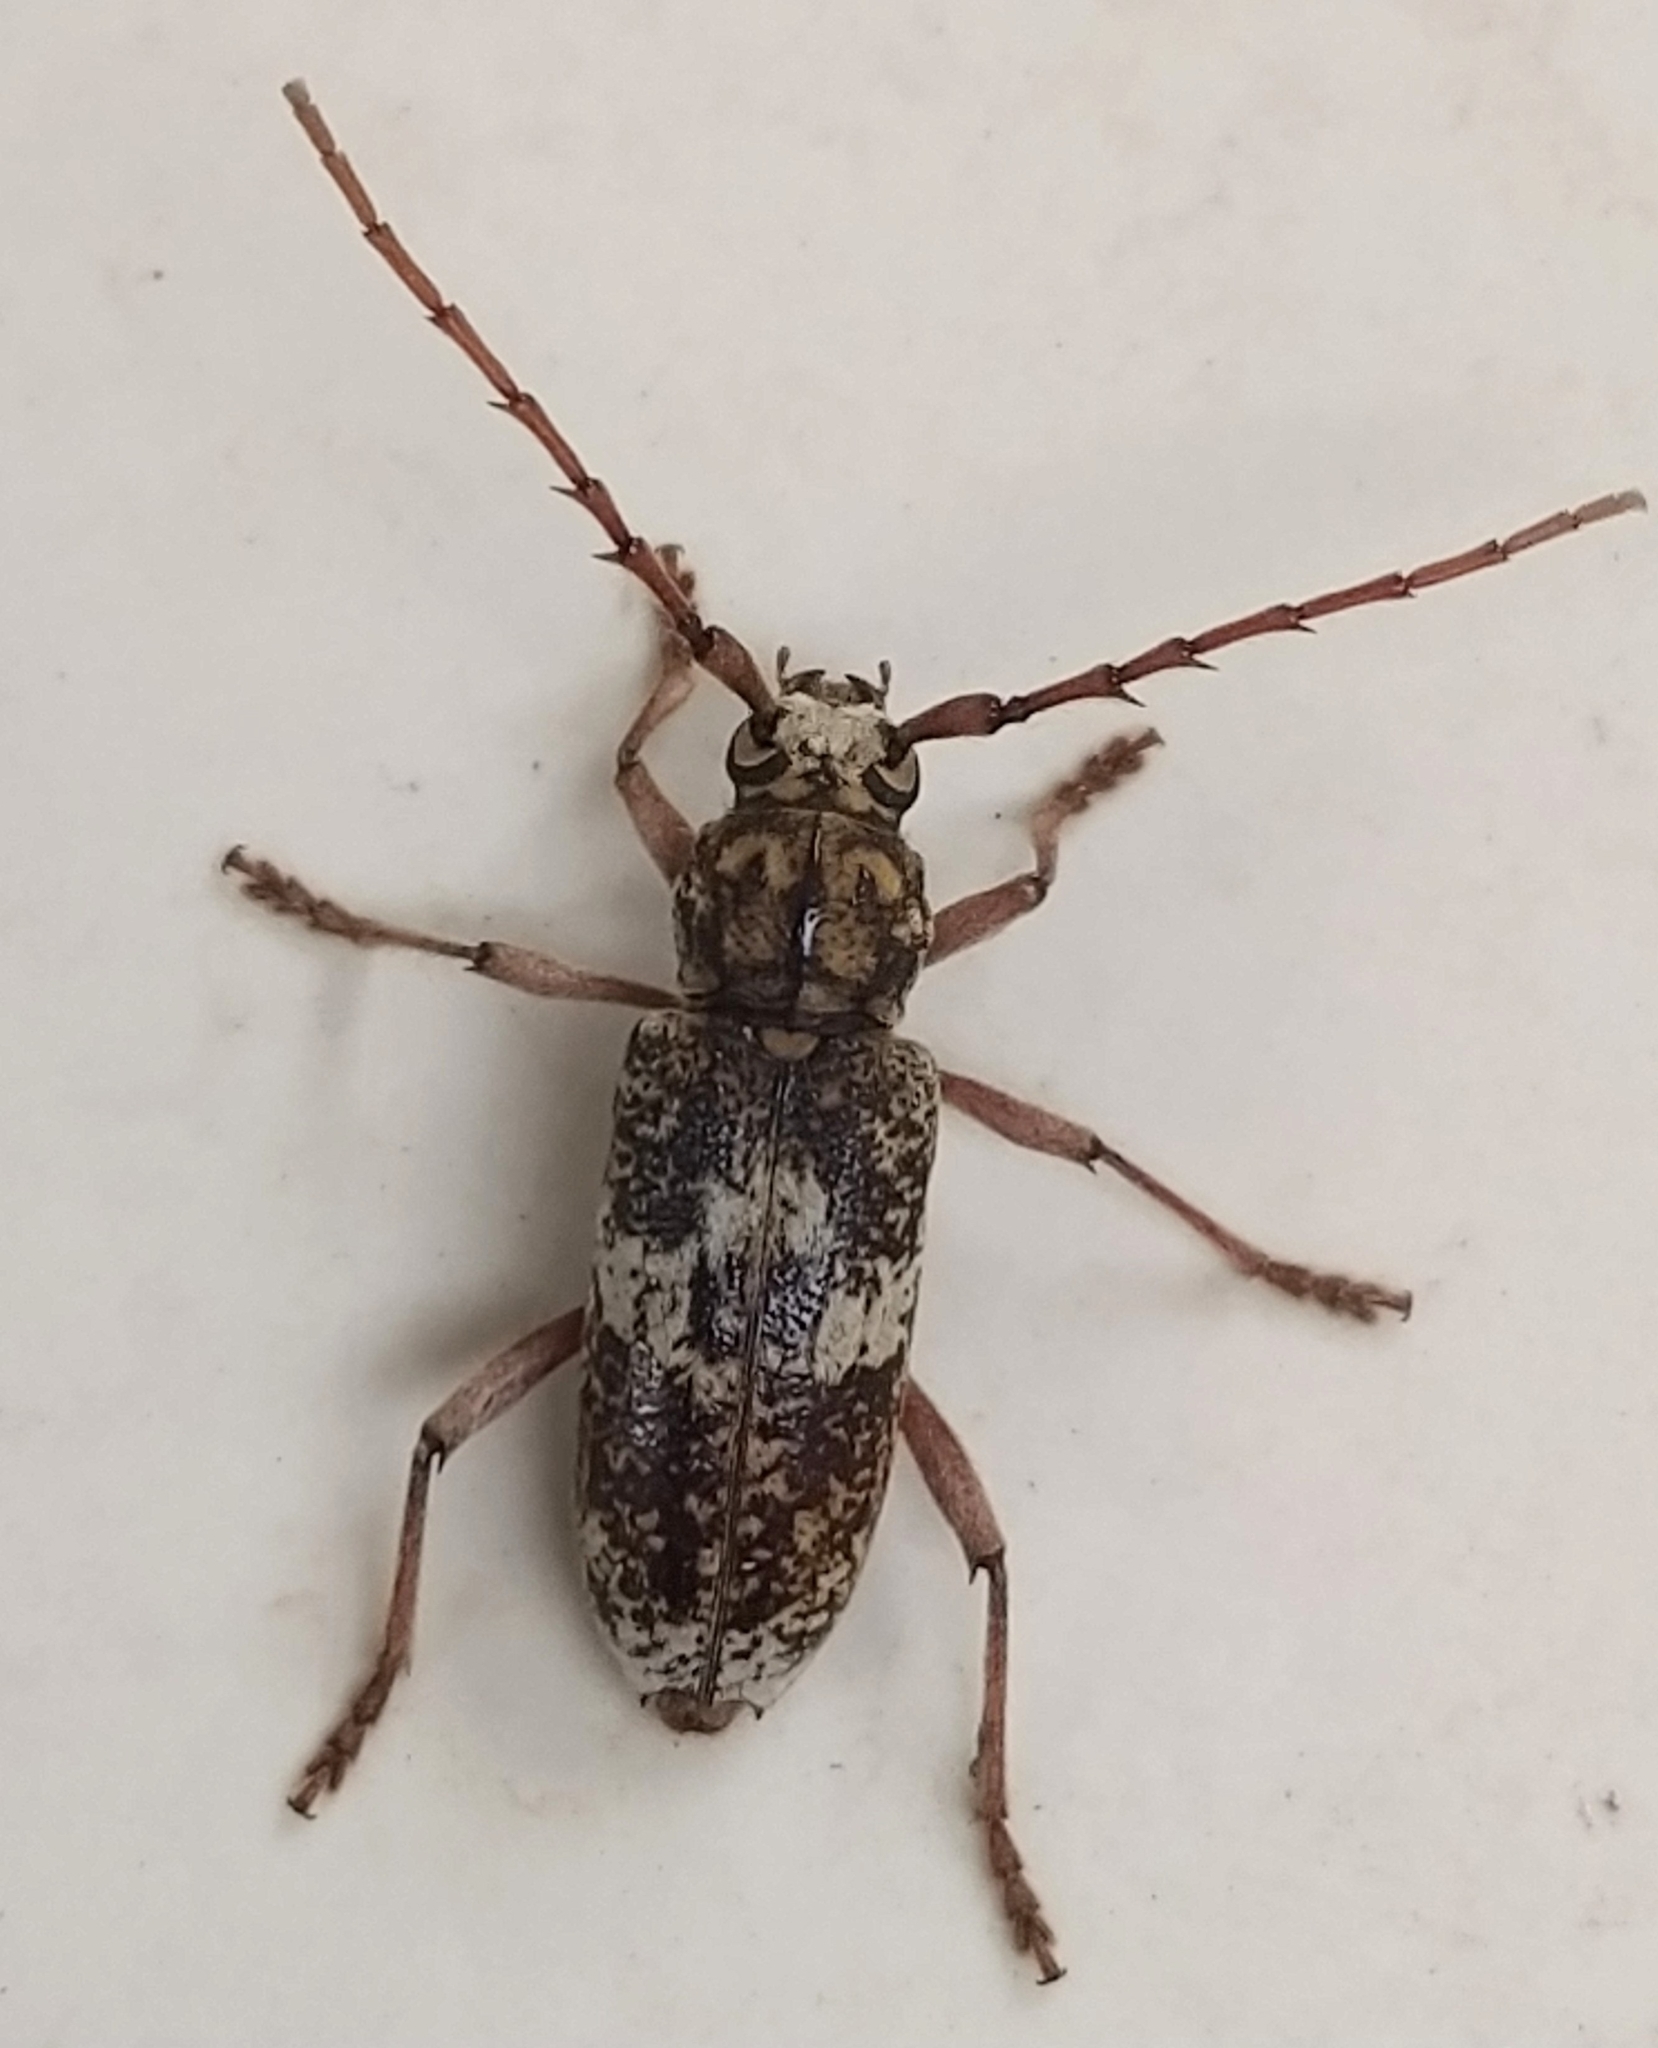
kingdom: Animalia
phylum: Arthropoda
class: Insecta
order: Coleoptera
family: Cerambycidae
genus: Lanephus
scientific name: Lanephus njumanii
